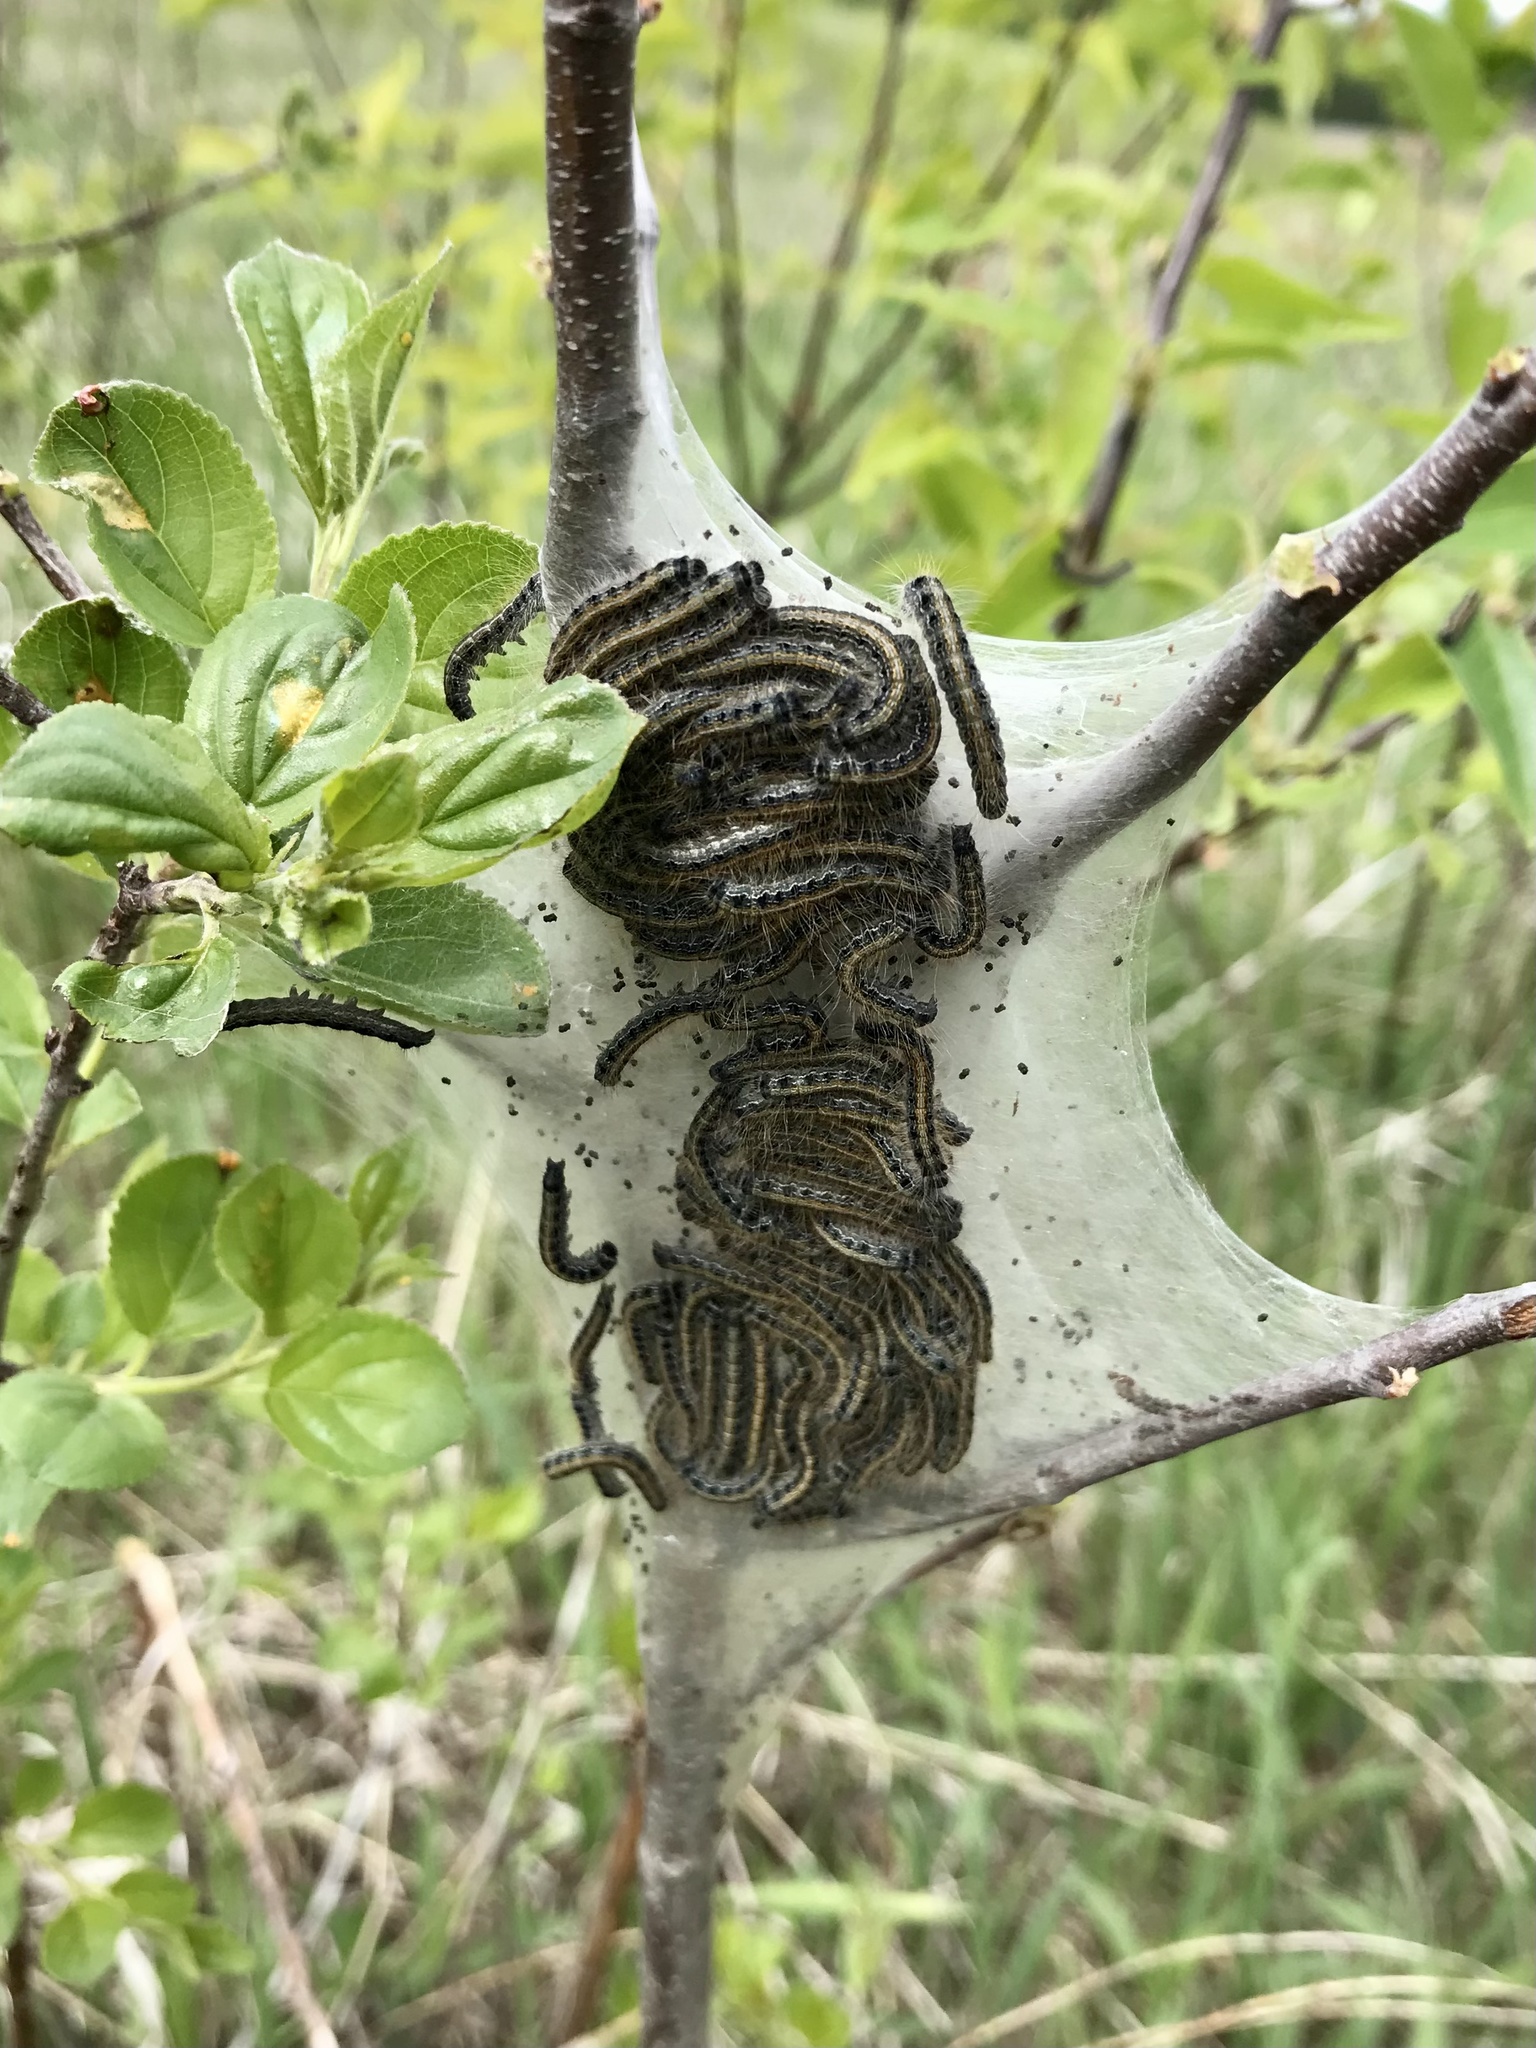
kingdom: Animalia
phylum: Arthropoda
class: Insecta
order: Lepidoptera
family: Lasiocampidae
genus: Malacosoma
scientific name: Malacosoma americana
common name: Eastern tent caterpillar moth
